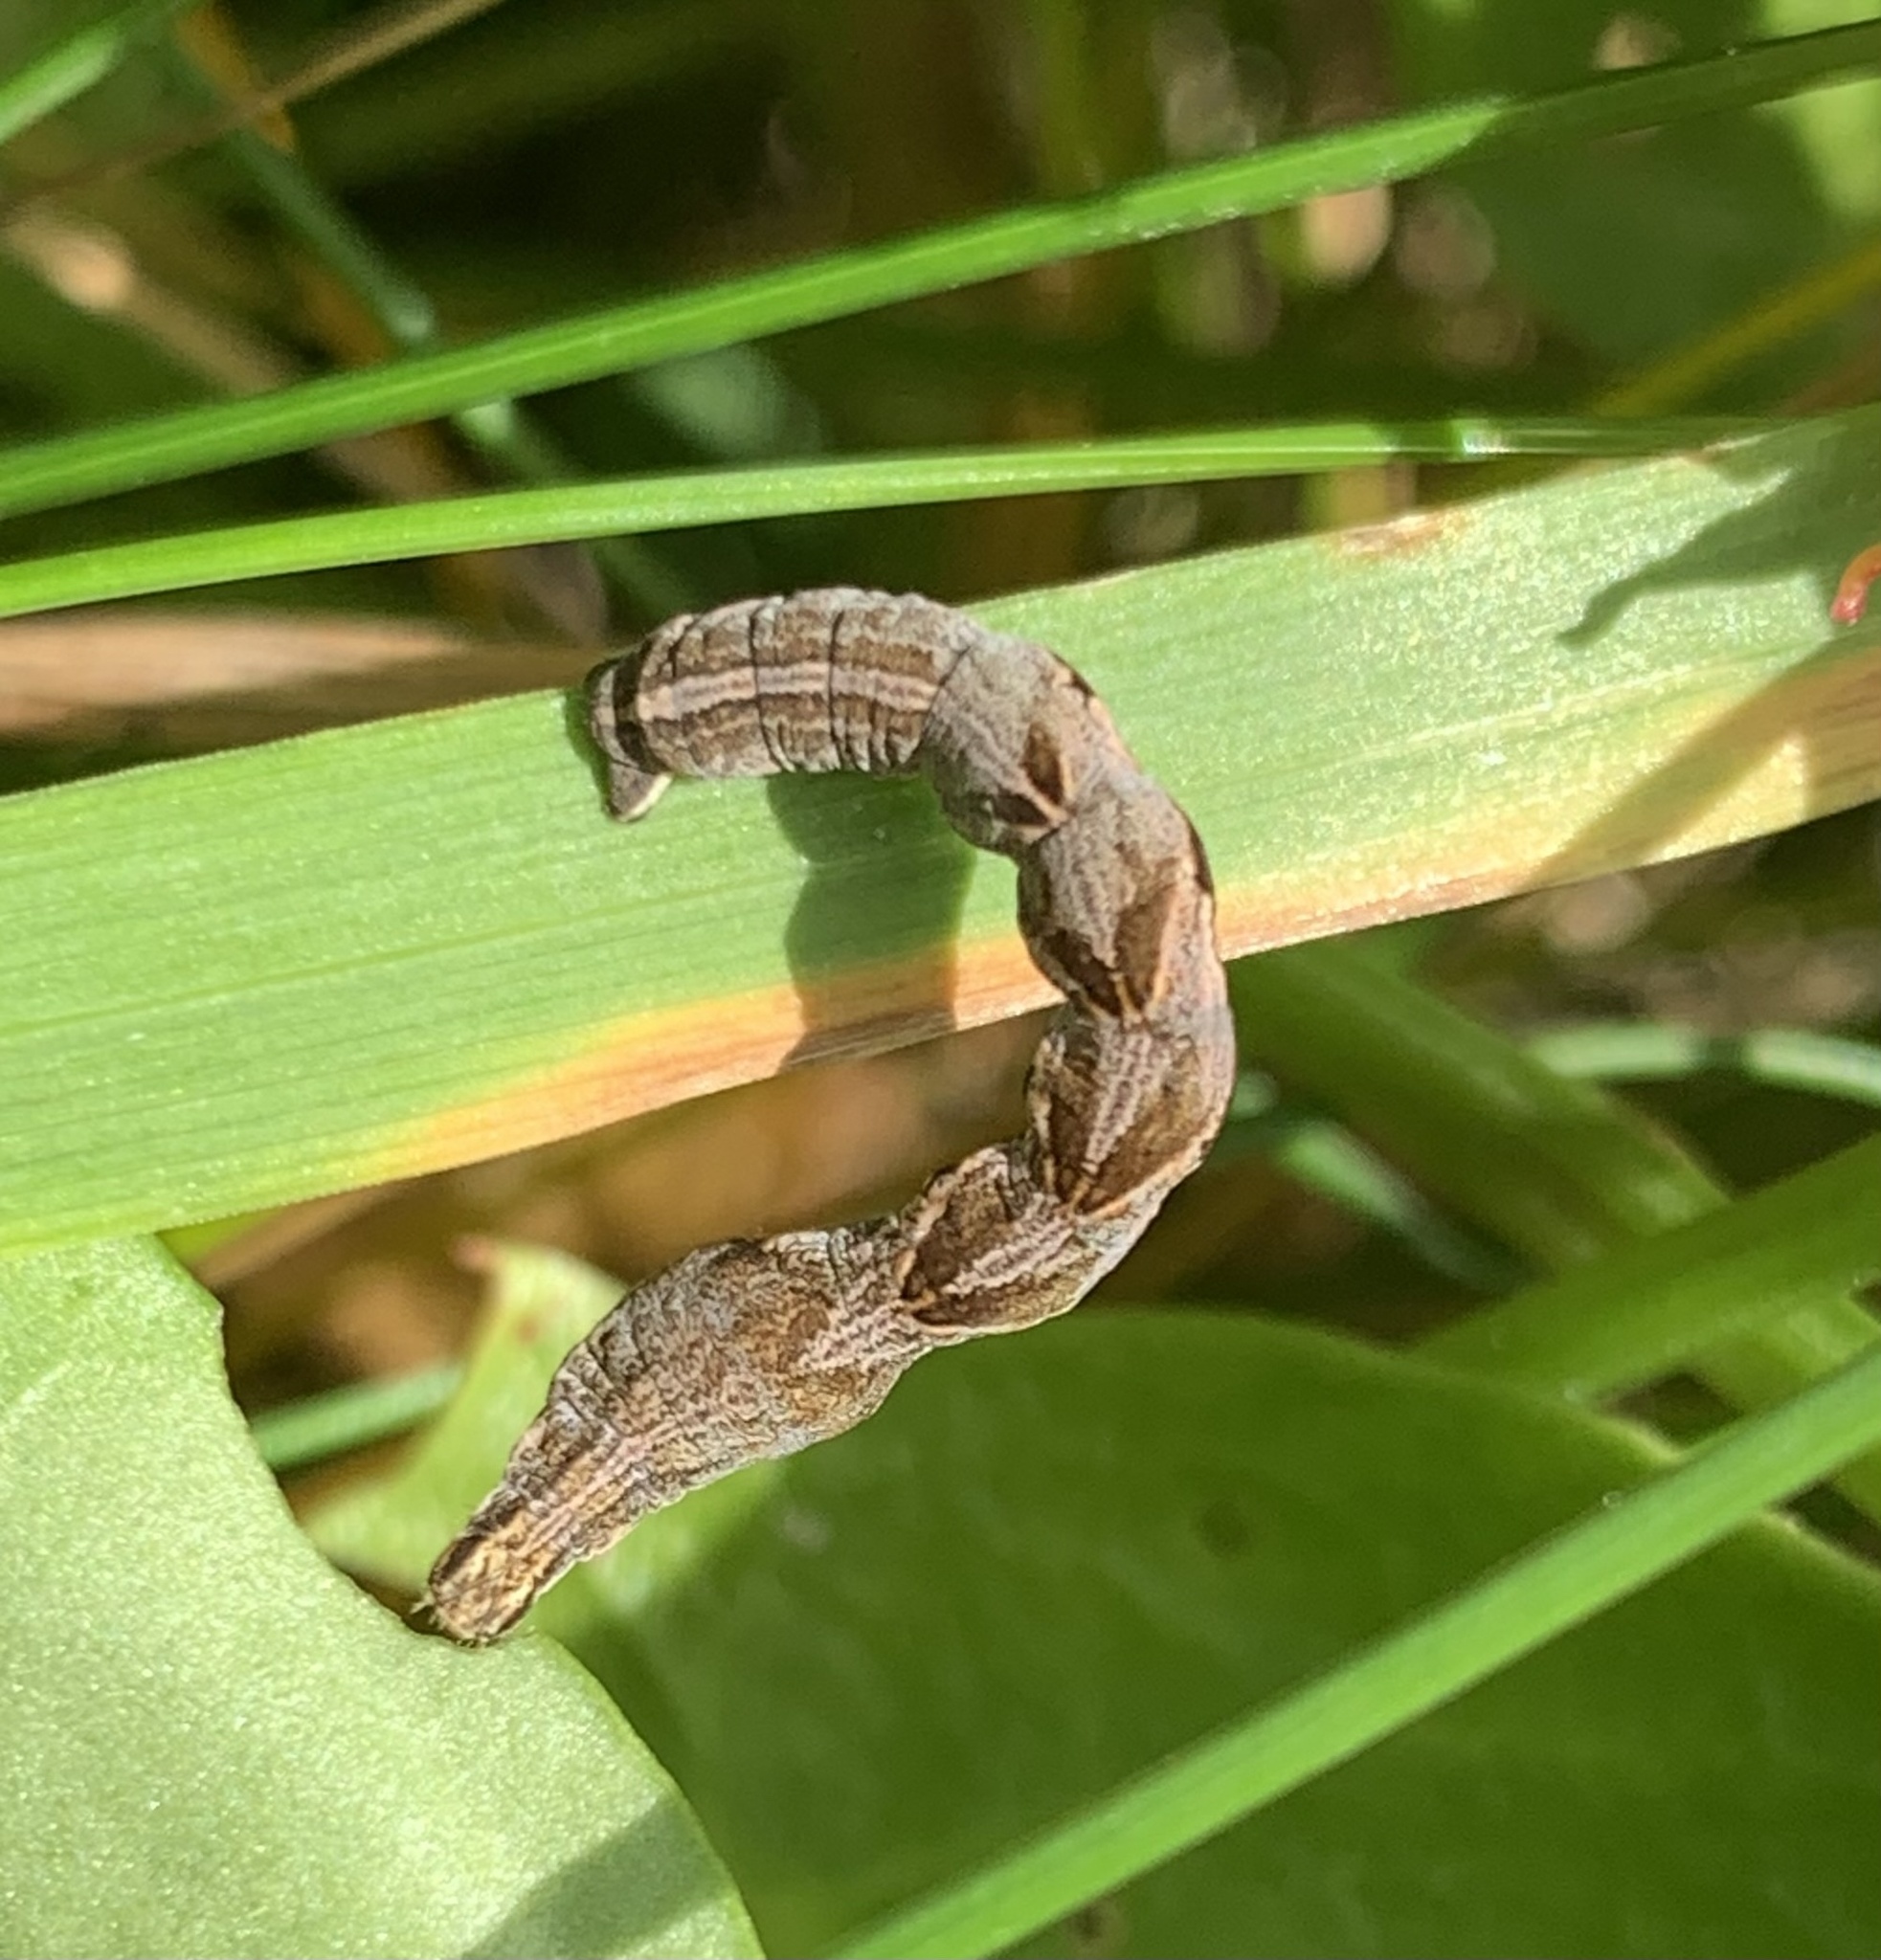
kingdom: Animalia
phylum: Arthropoda
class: Insecta
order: Lepidoptera
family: Geometridae
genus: Timandra
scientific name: Timandra comae
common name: Blood-vein
